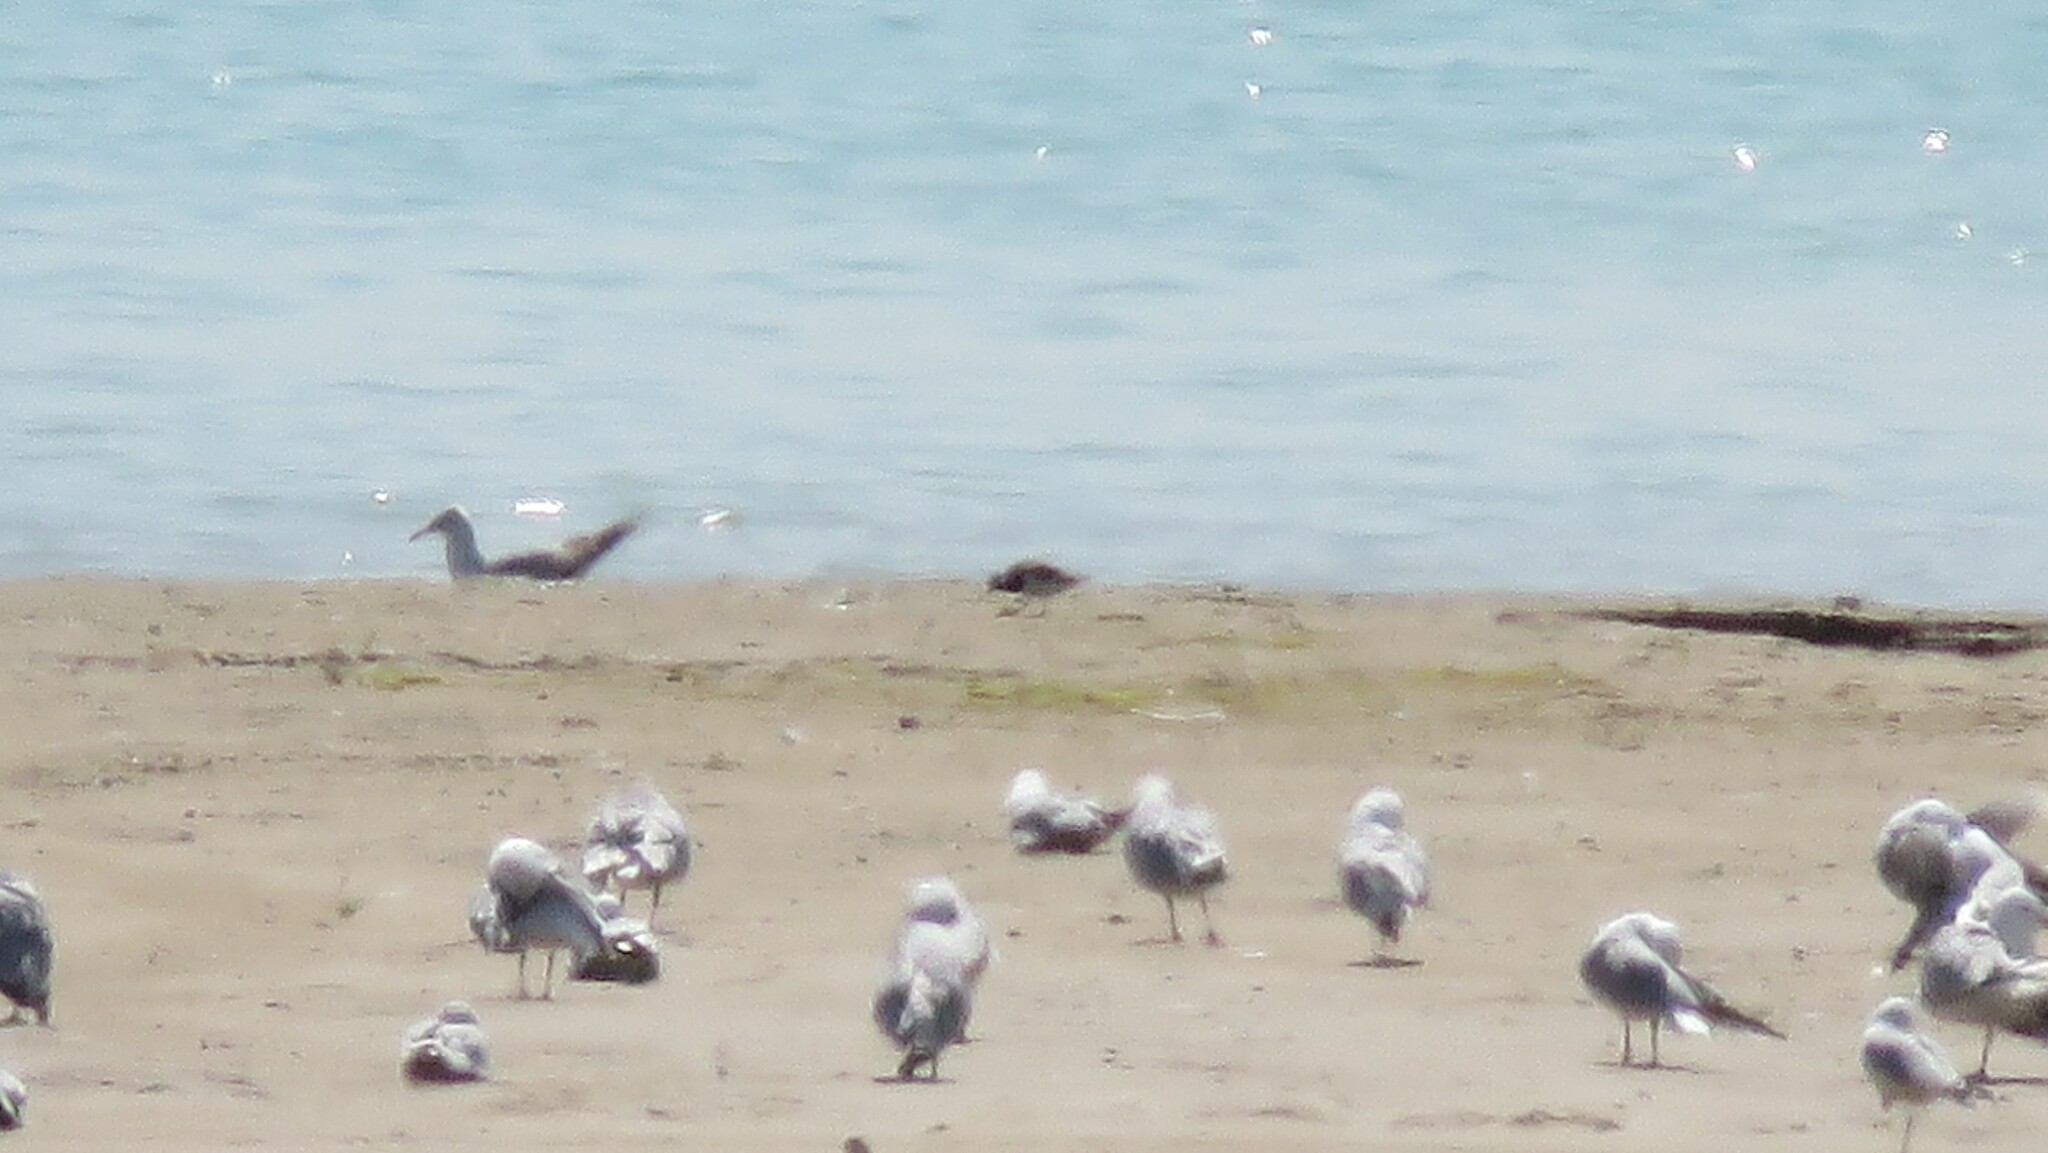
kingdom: Animalia
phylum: Chordata
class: Aves
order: Charadriiformes
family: Scolopacidae
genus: Arenaria
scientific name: Arenaria interpres
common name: Ruddy turnstone
